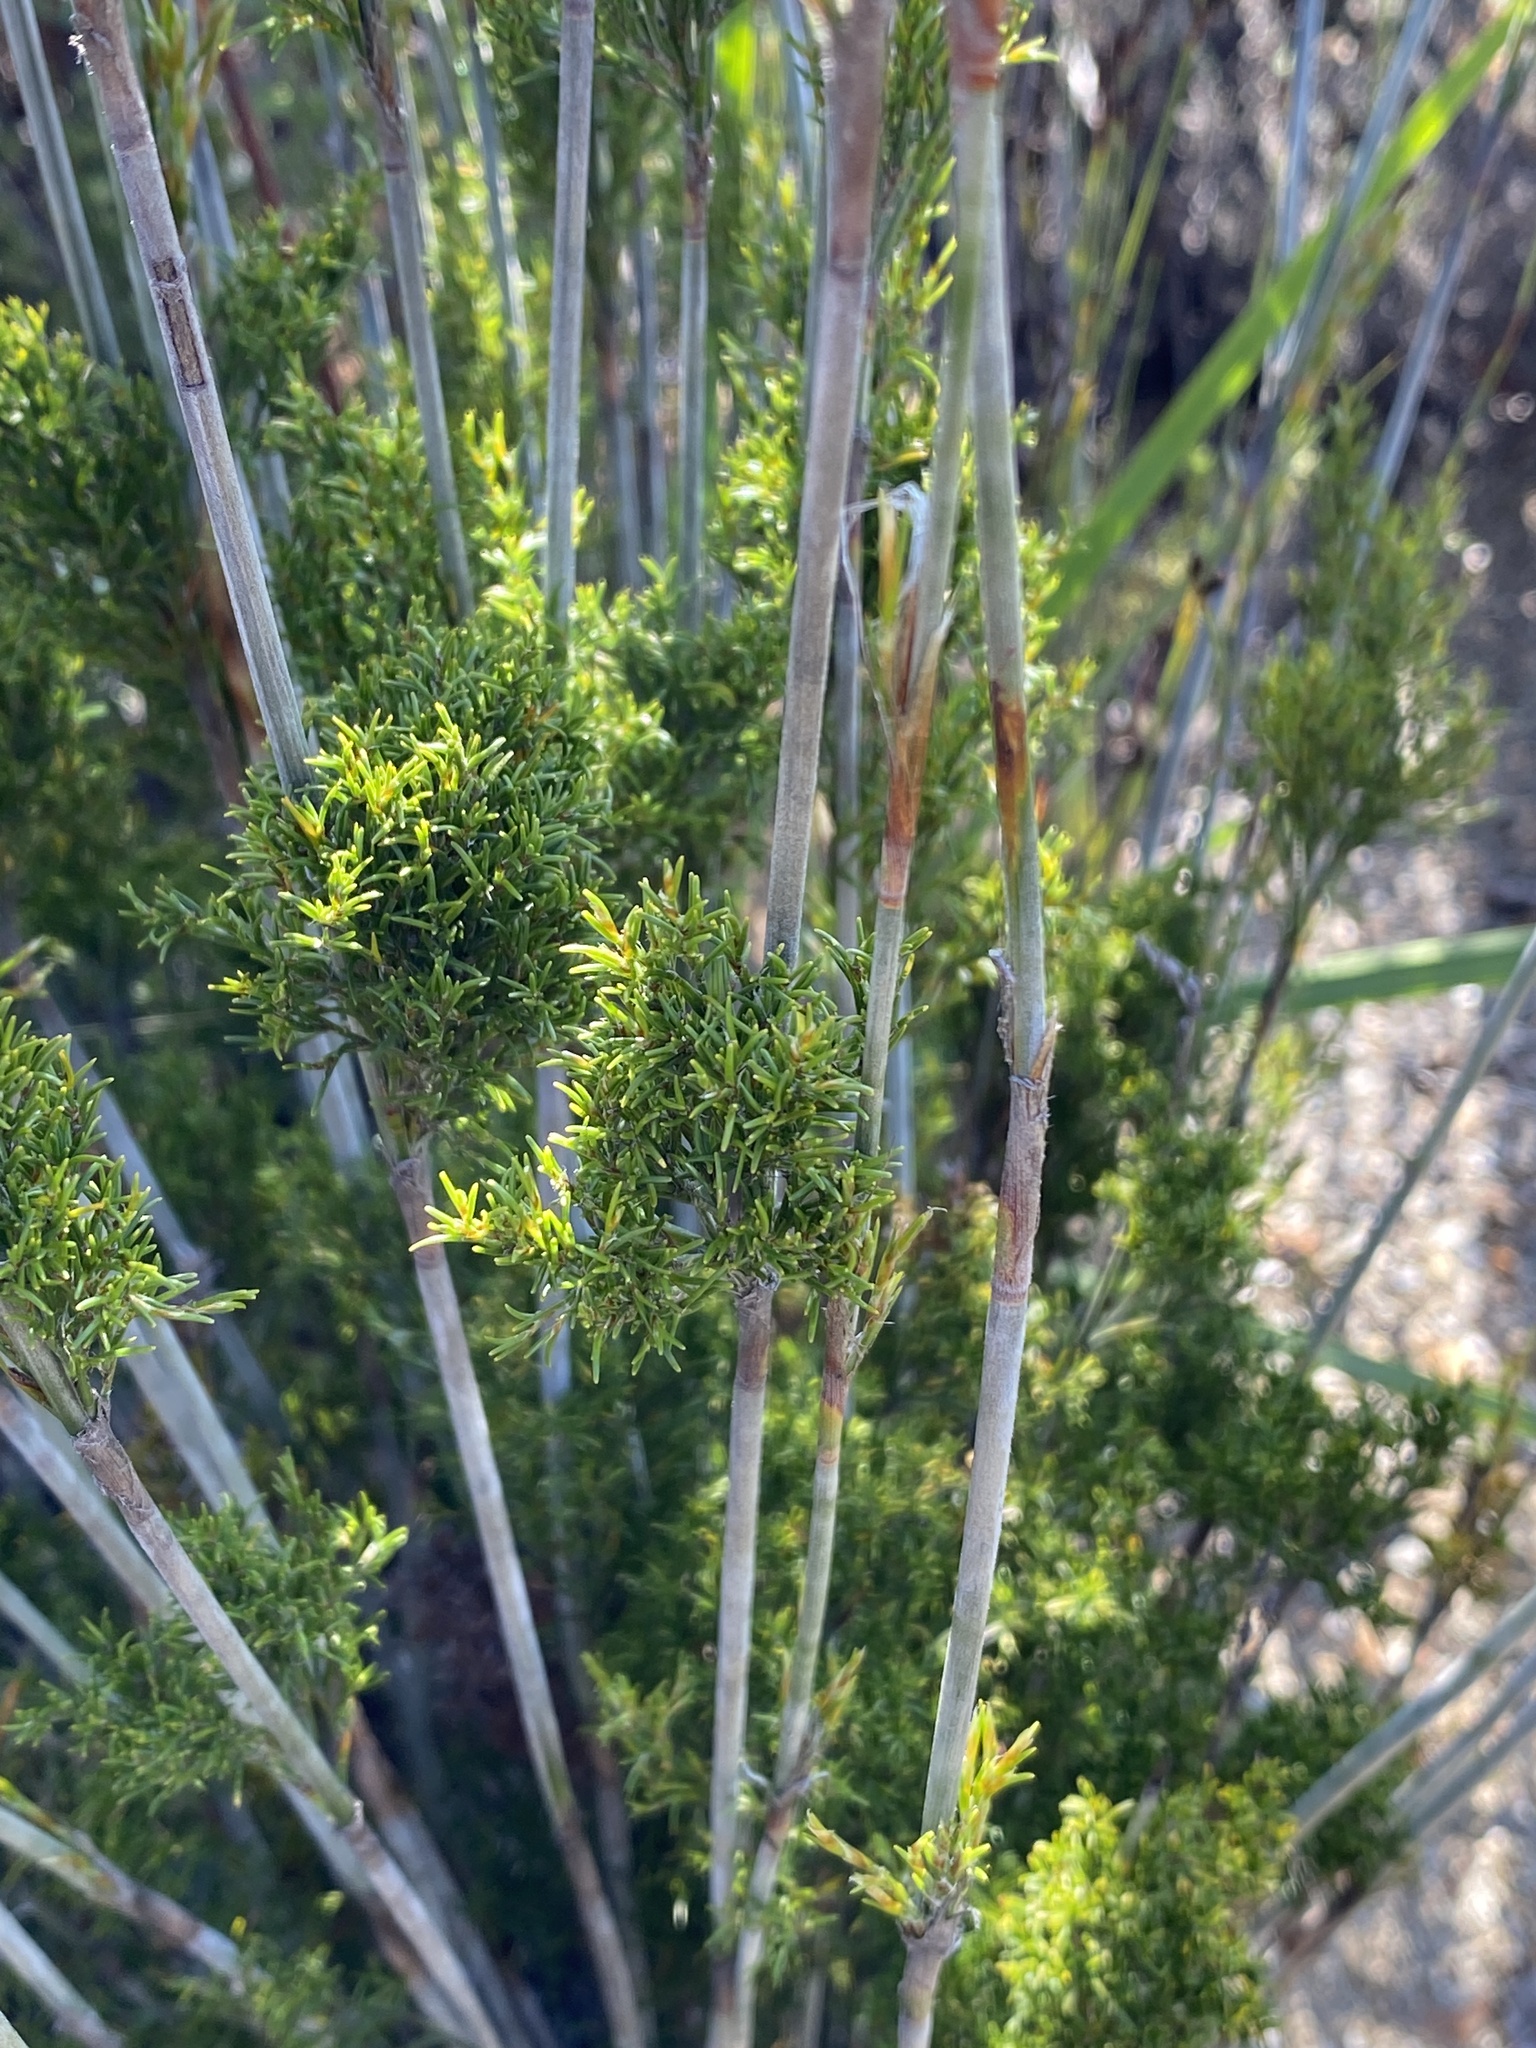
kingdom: Plantae
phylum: Tracheophyta
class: Liliopsida
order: Poales
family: Restionaceae
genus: Thamnochortus
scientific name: Thamnochortus rigidus
